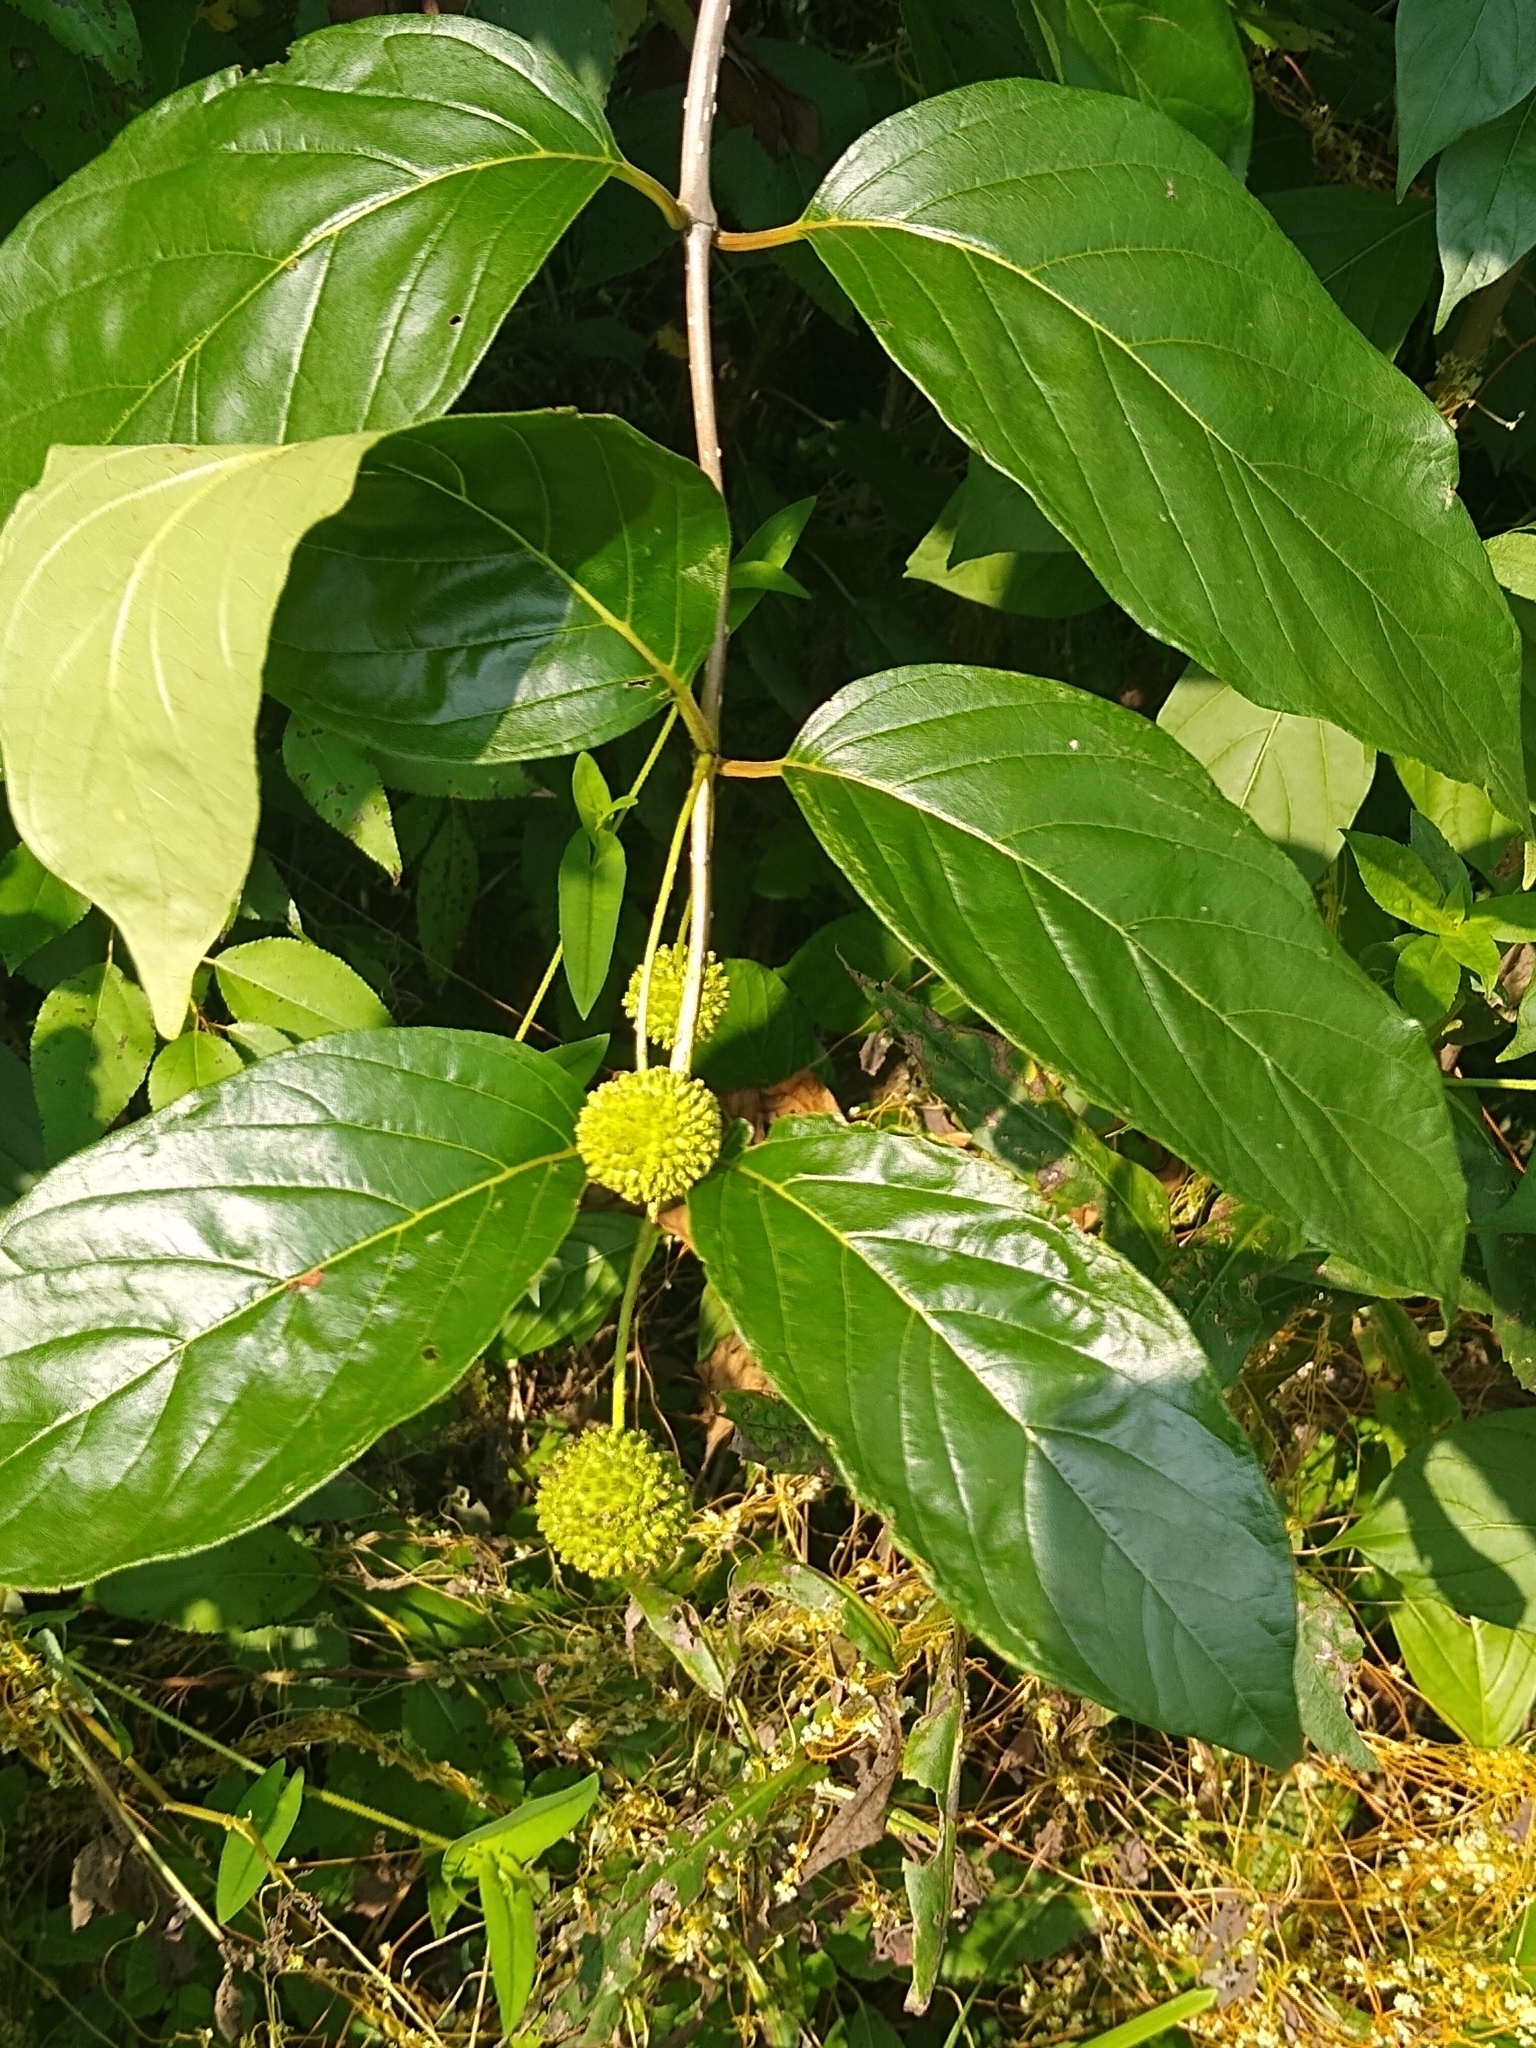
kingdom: Plantae
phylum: Tracheophyta
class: Magnoliopsida
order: Gentianales
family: Rubiaceae
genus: Cephalanthus
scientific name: Cephalanthus occidentalis
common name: Button-willow
